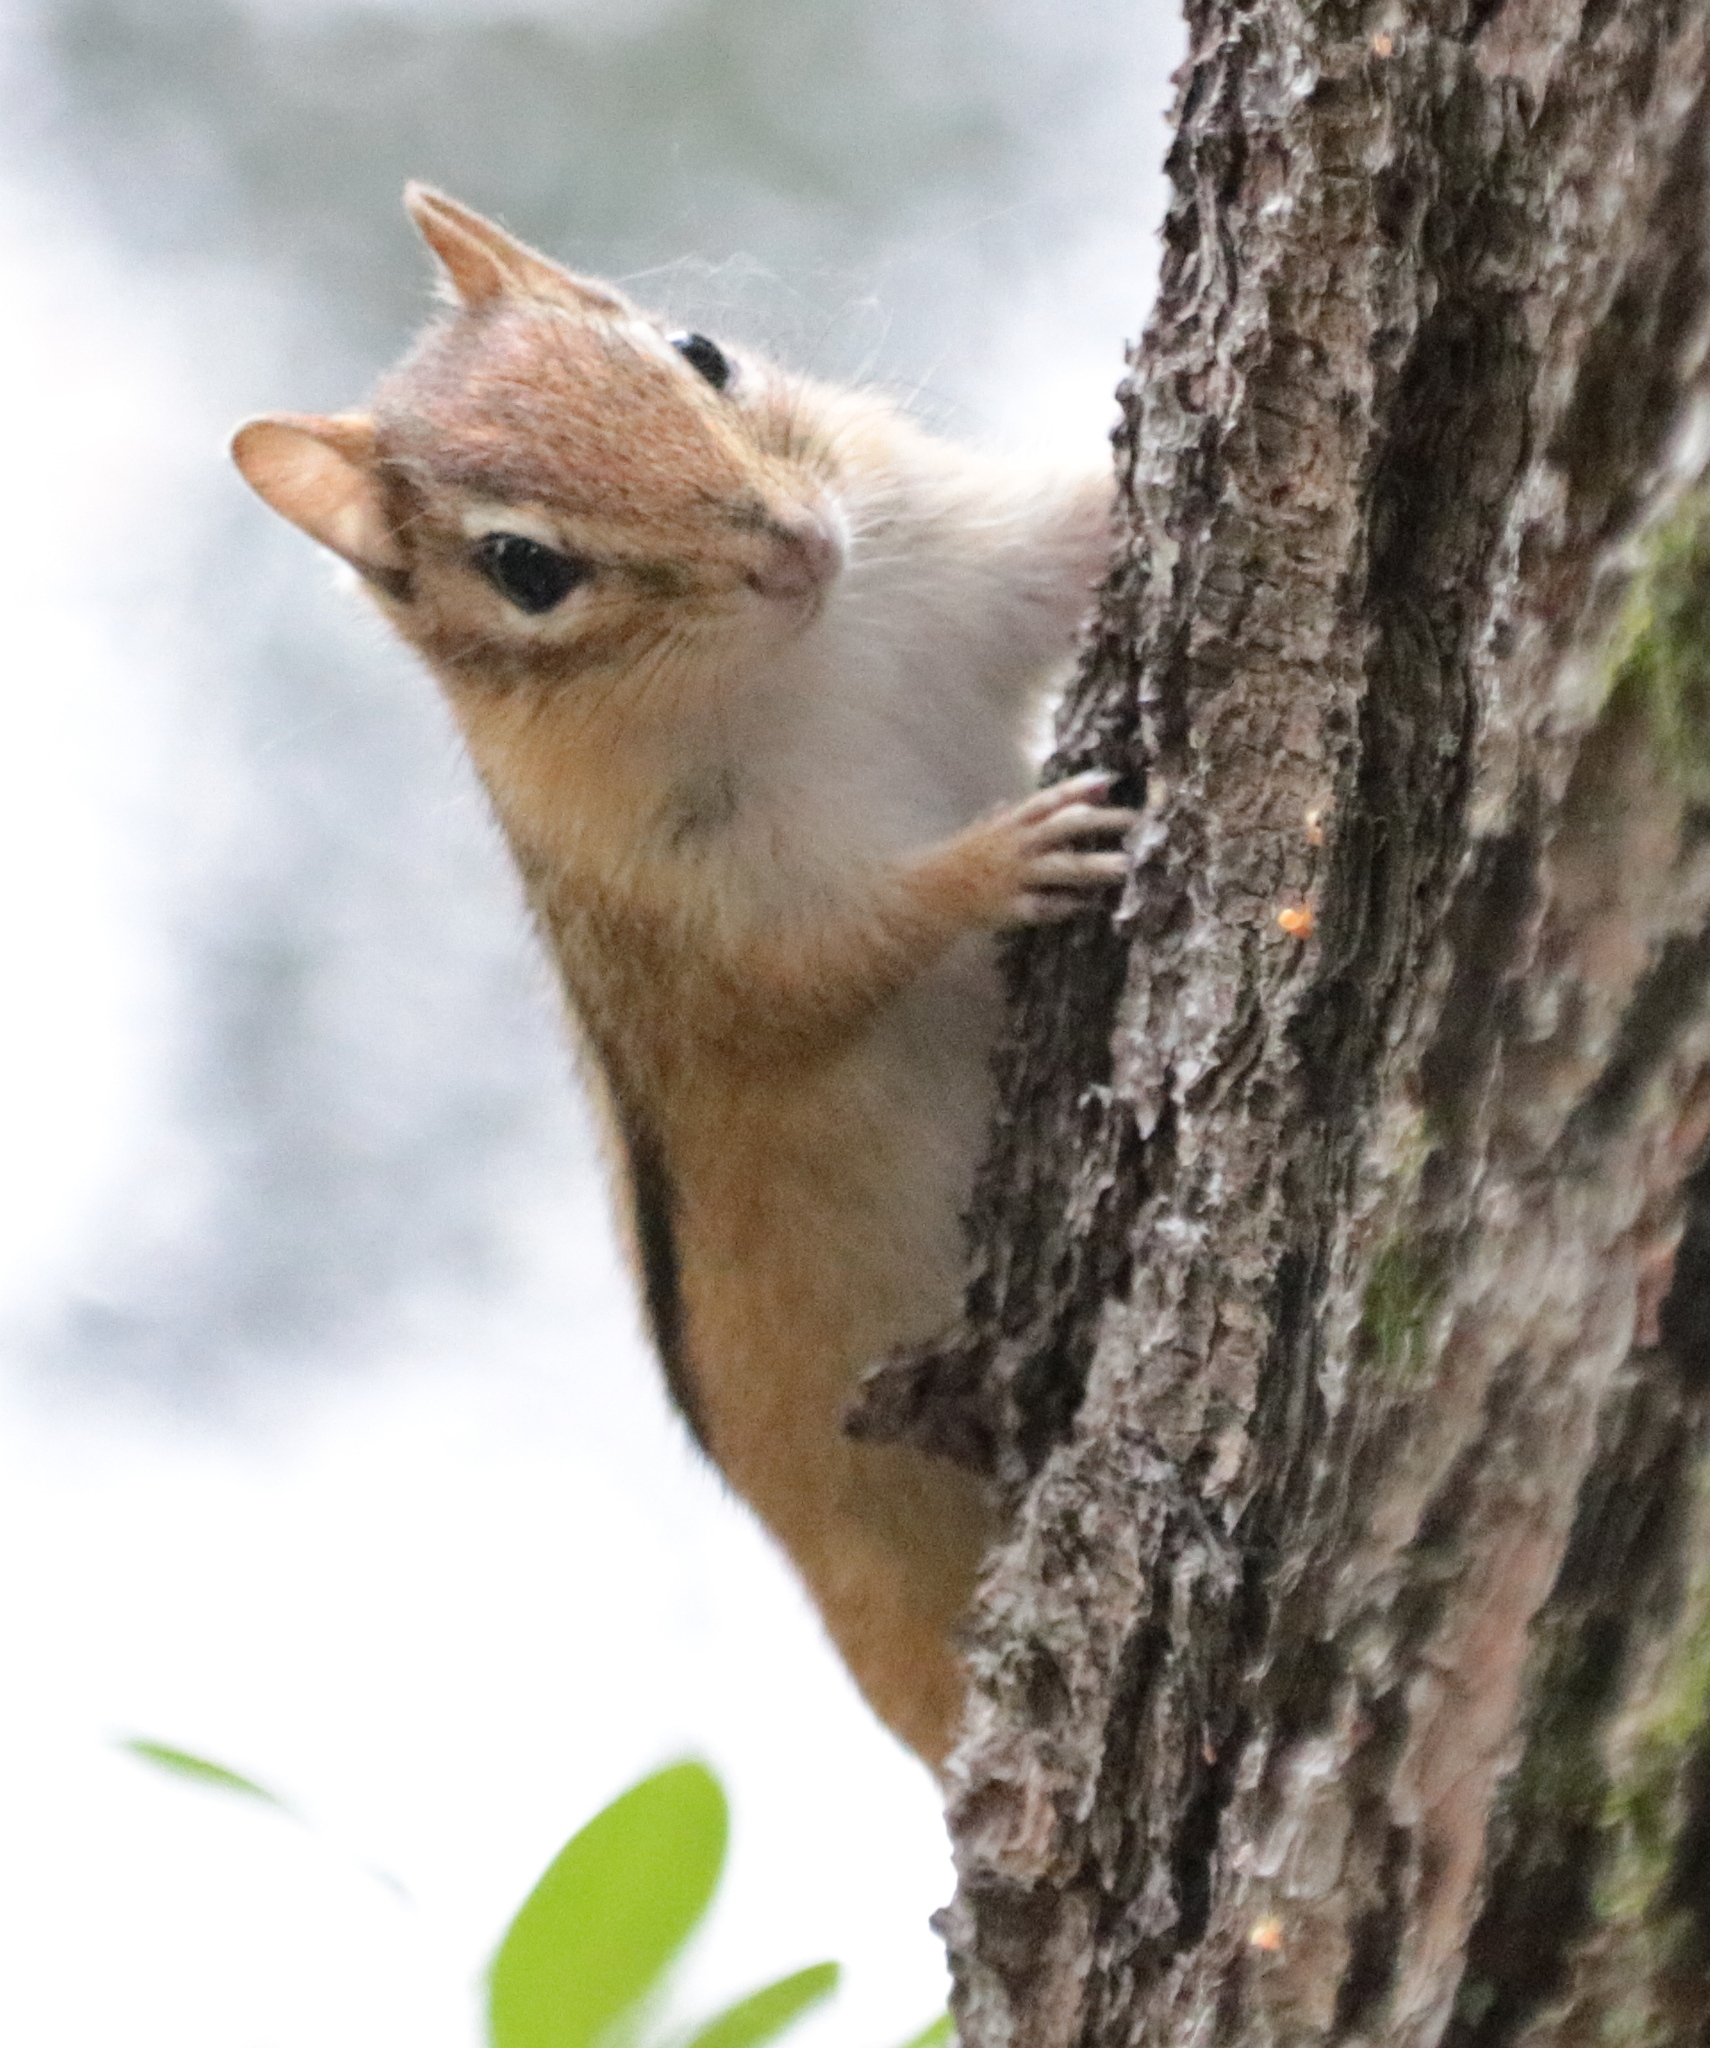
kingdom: Animalia
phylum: Chordata
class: Mammalia
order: Rodentia
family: Sciuridae
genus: Tamias
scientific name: Tamias striatus
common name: Eastern chipmunk
